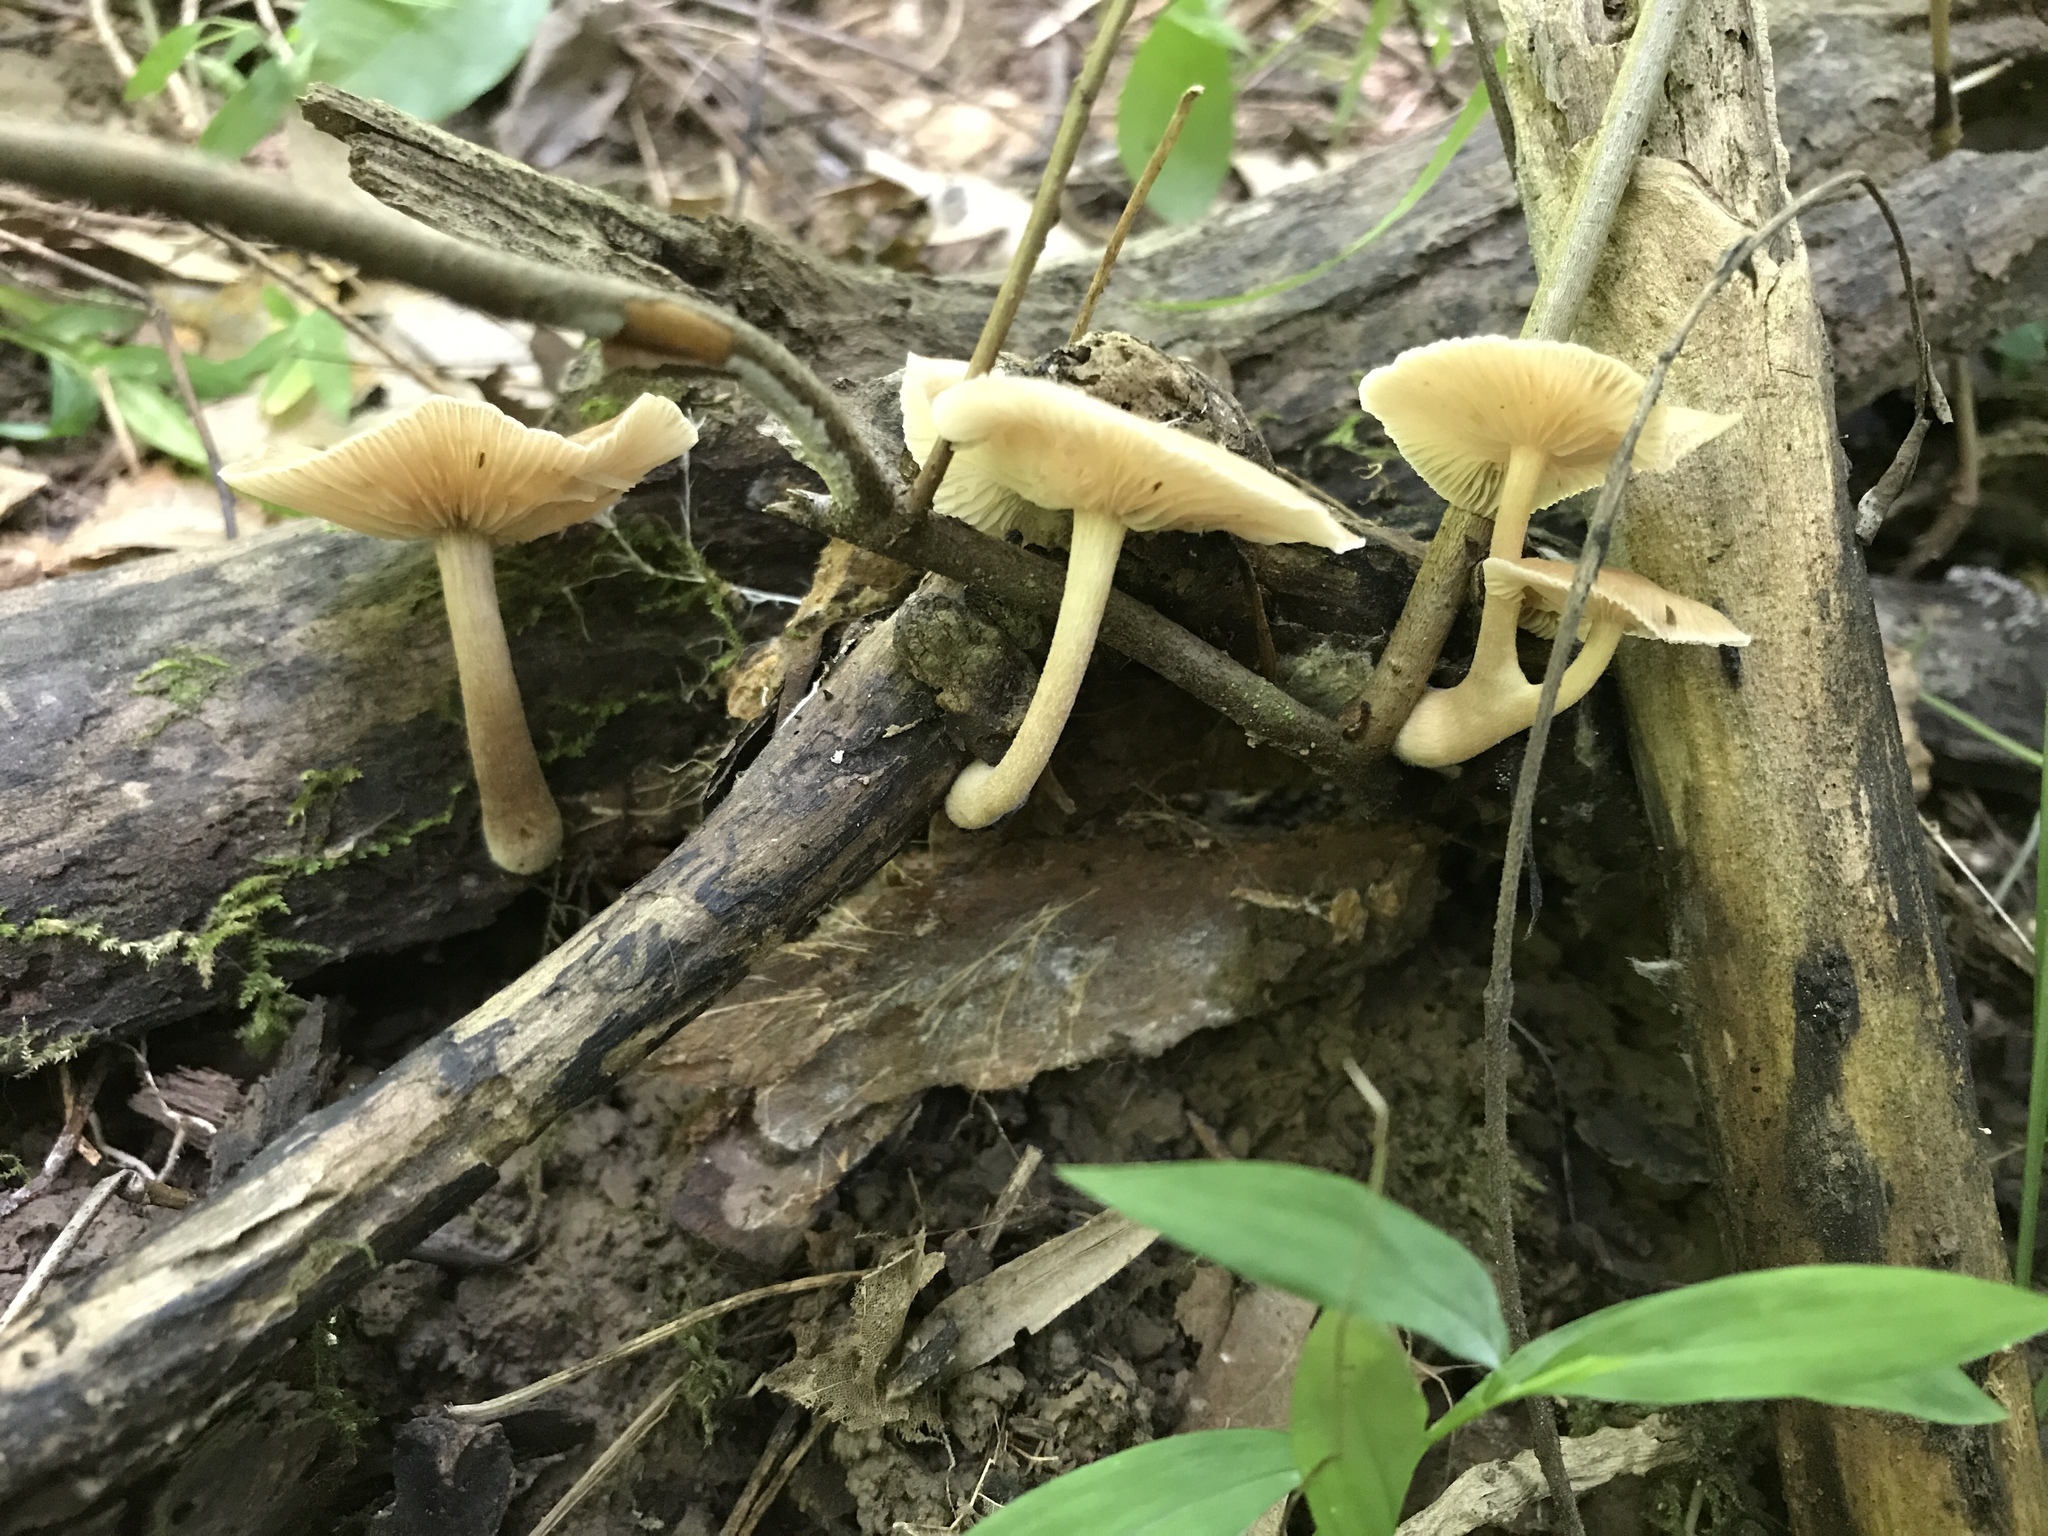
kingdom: Fungi
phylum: Basidiomycota
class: Agaricomycetes
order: Agaricales
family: Omphalotaceae
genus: Collybiopsis
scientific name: Collybiopsis luxurians
